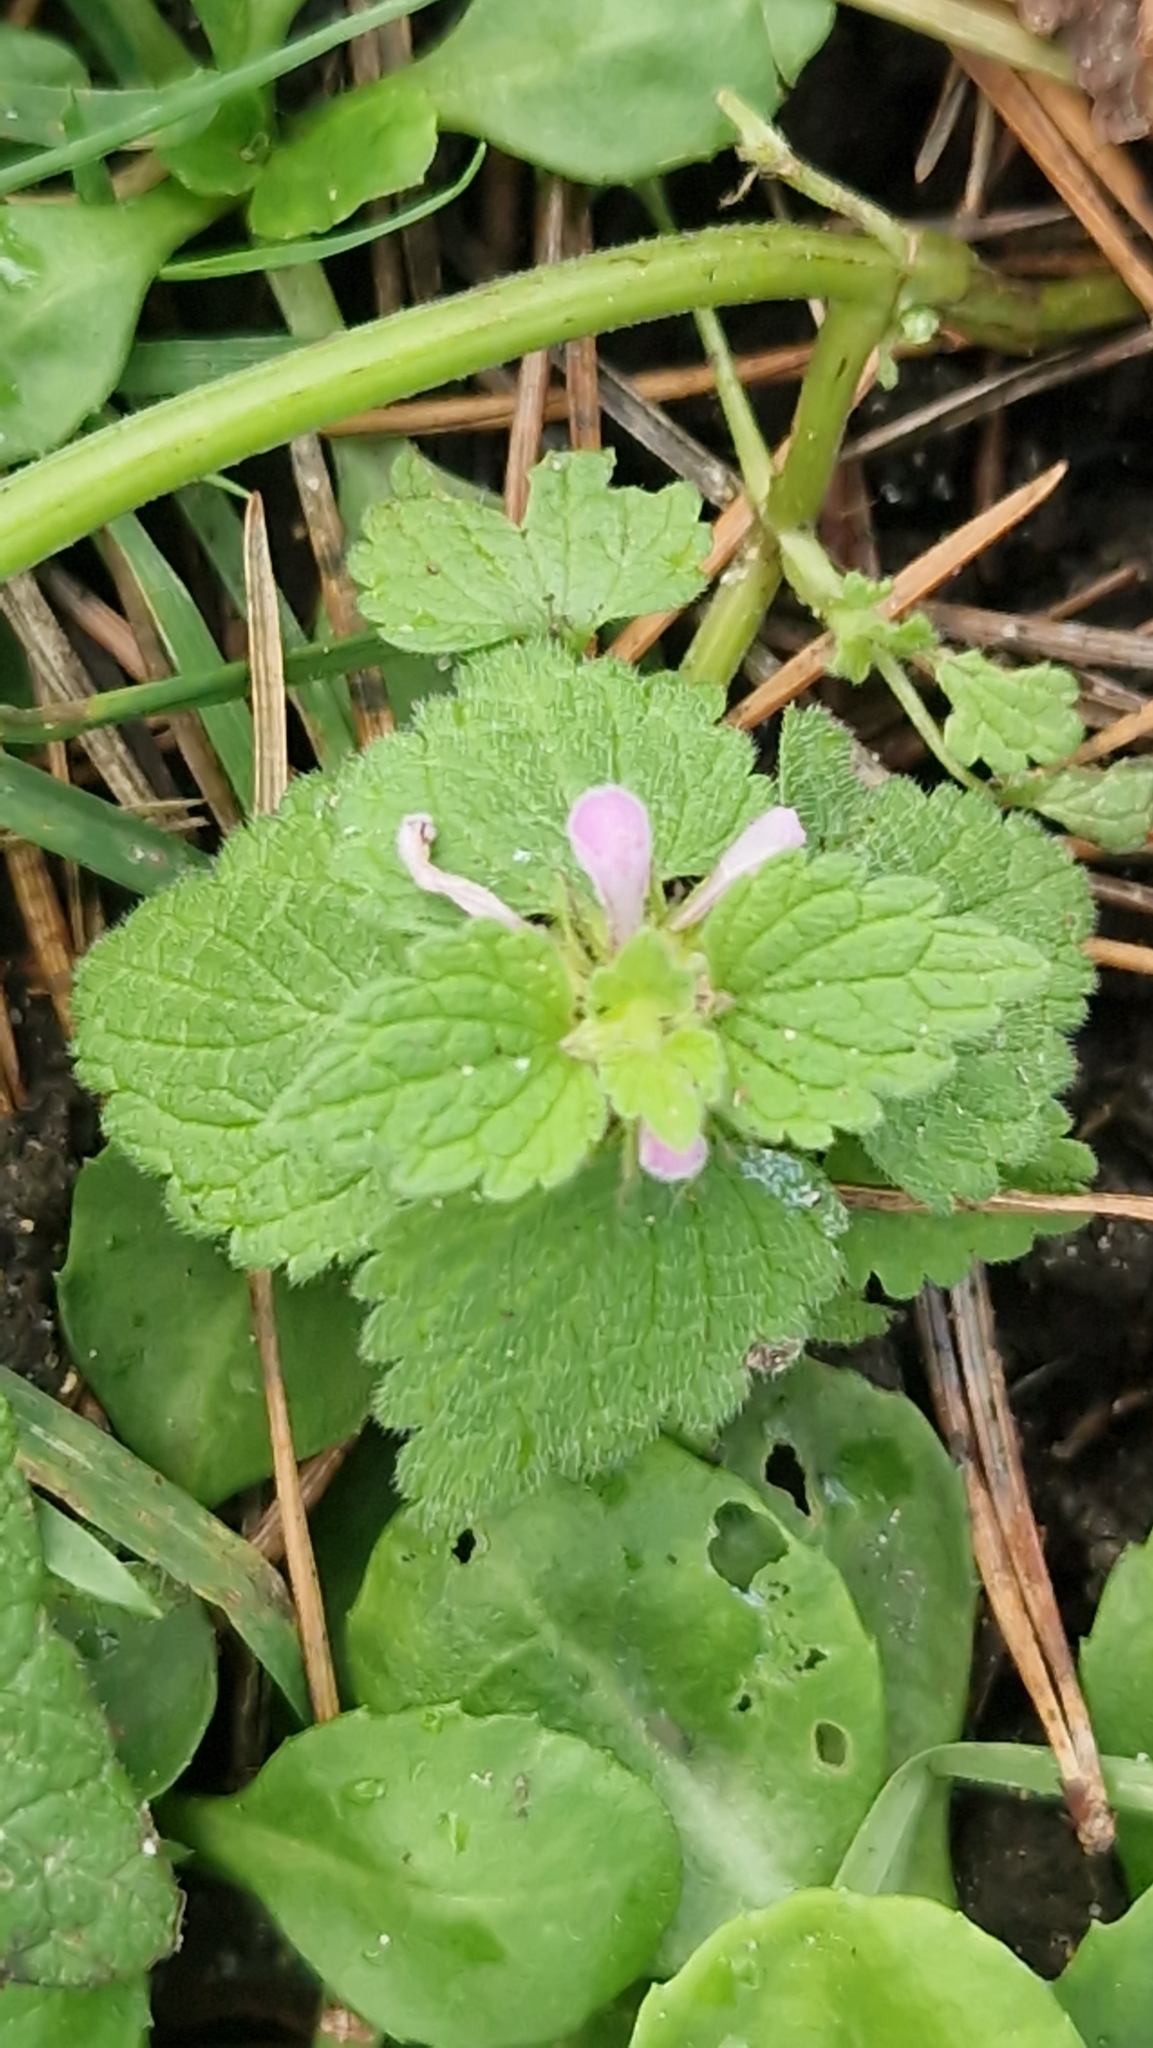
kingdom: Plantae
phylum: Tracheophyta
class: Magnoliopsida
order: Lamiales
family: Lamiaceae
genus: Lamium
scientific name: Lamium purpureum
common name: Red dead-nettle
